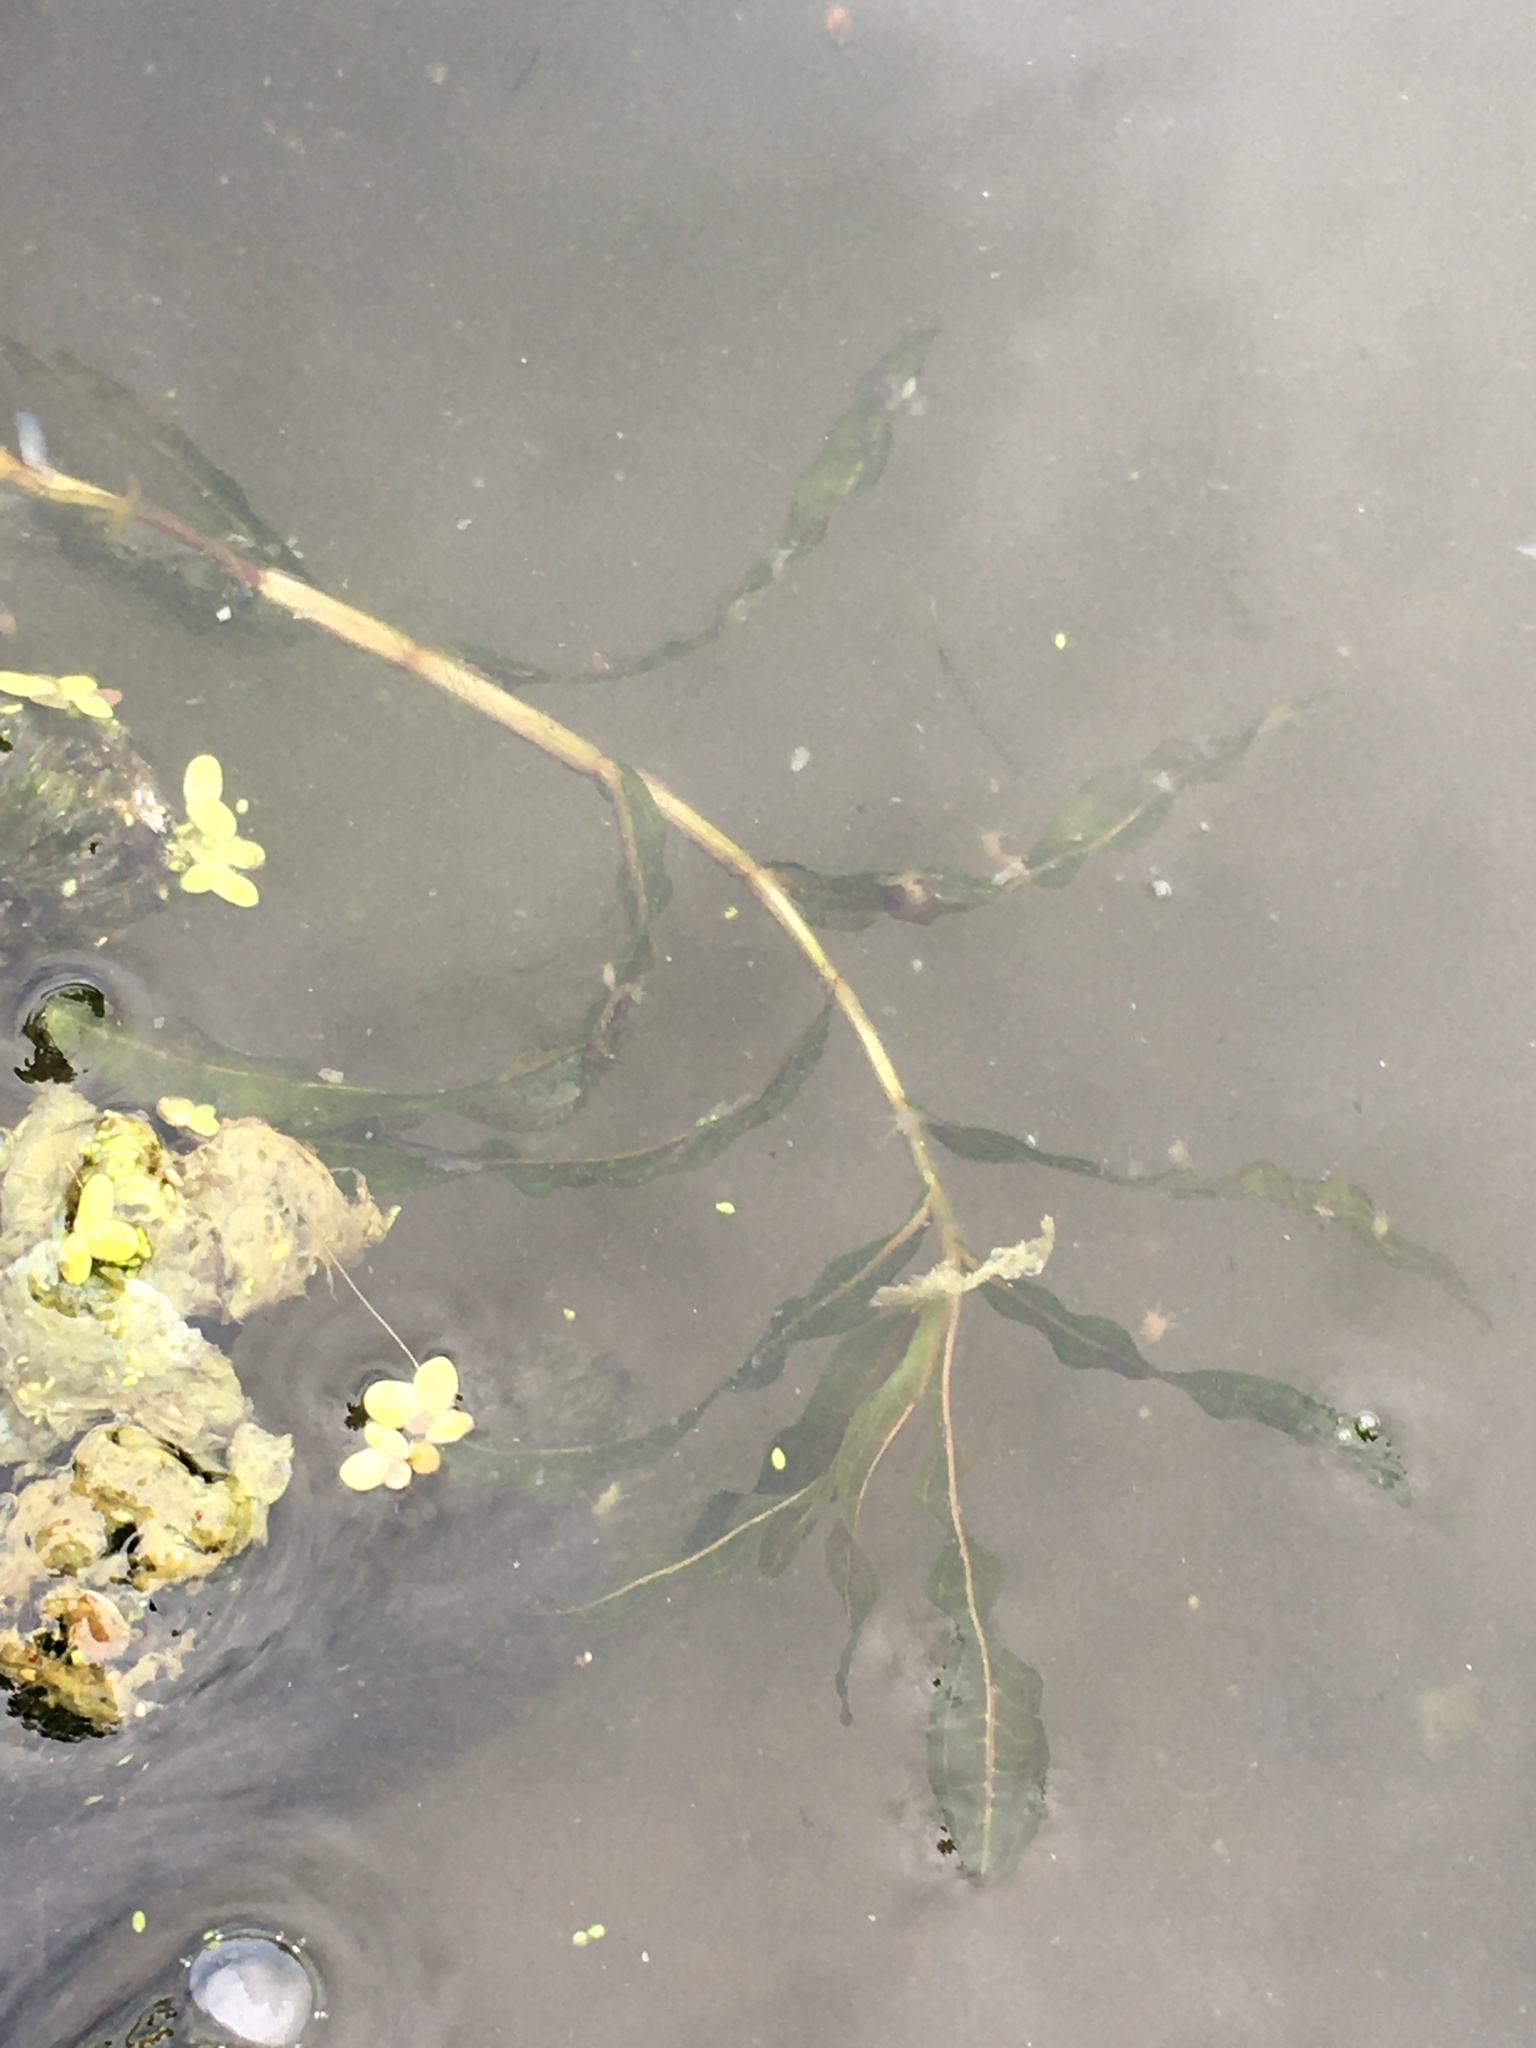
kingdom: Plantae
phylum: Tracheophyta
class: Liliopsida
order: Alismatales
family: Potamogetonaceae
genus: Potamogeton
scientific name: Potamogeton crispus
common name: Curled pondweed
